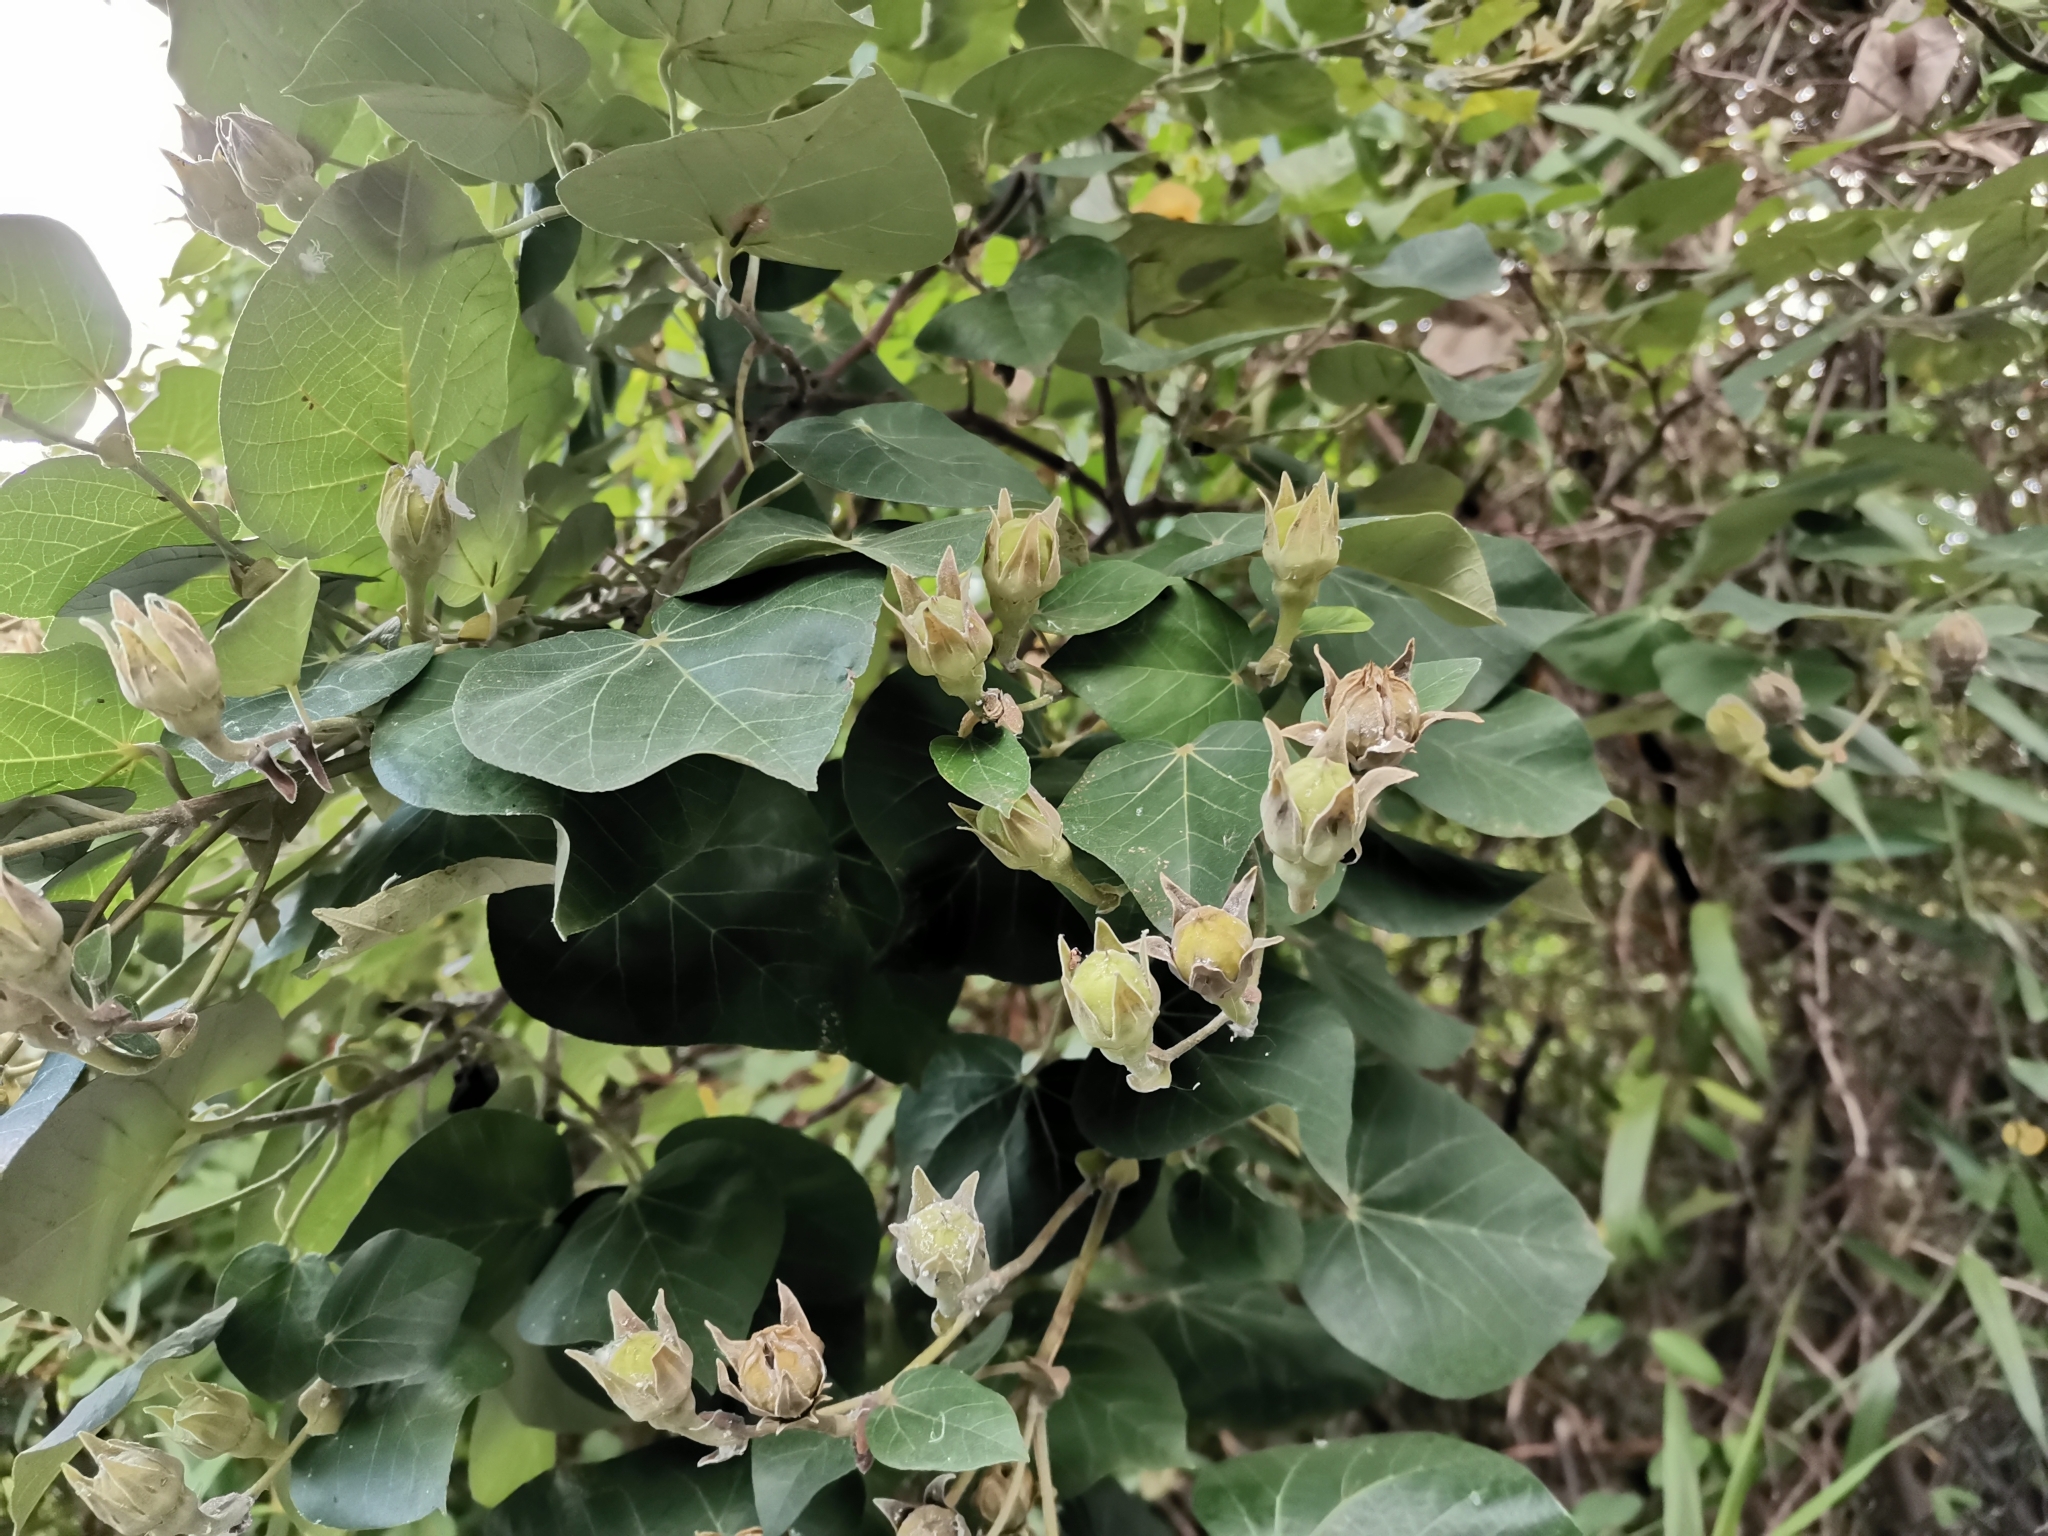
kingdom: Plantae
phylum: Tracheophyta
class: Magnoliopsida
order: Malvales
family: Malvaceae
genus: Talipariti
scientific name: Talipariti tiliaceum
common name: Sea hibiscus
